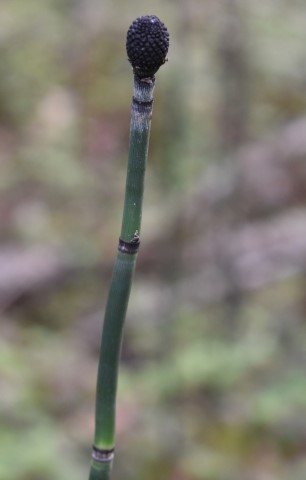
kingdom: Plantae
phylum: Tracheophyta
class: Polypodiopsida
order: Equisetales
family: Equisetaceae
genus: Equisetum
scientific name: Equisetum hyemale
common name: Rough horsetail
